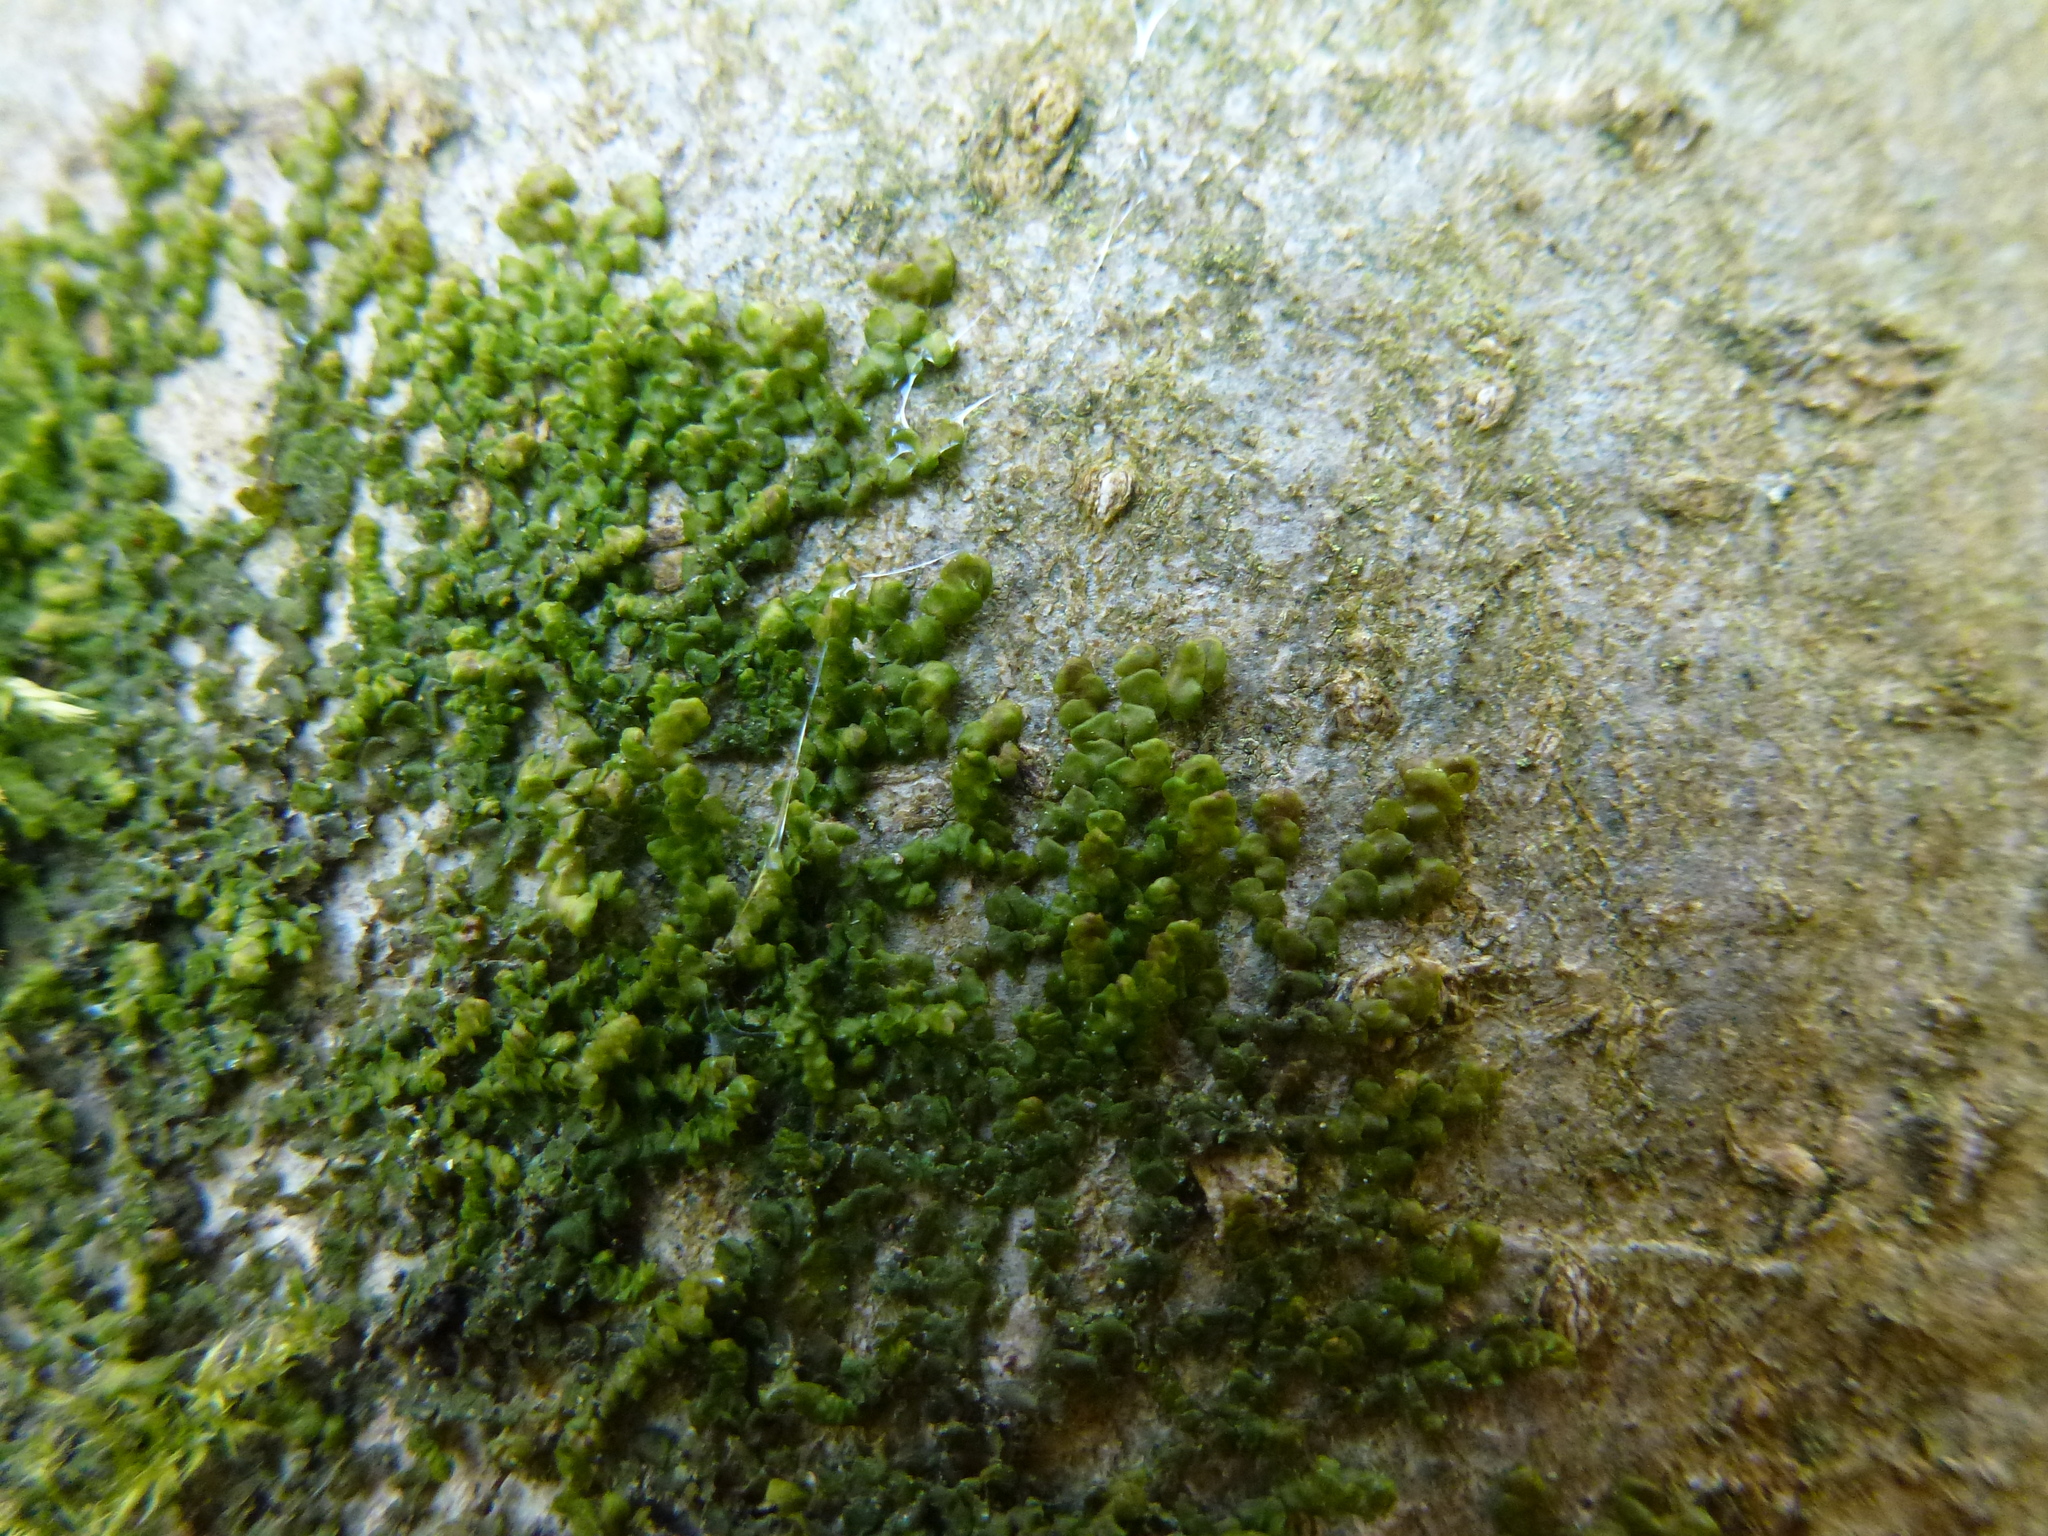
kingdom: Plantae
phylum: Marchantiophyta
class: Jungermanniopsida
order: Porellales
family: Frullaniaceae
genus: Frullania
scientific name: Frullania dilatata
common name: Dilated scalewort
